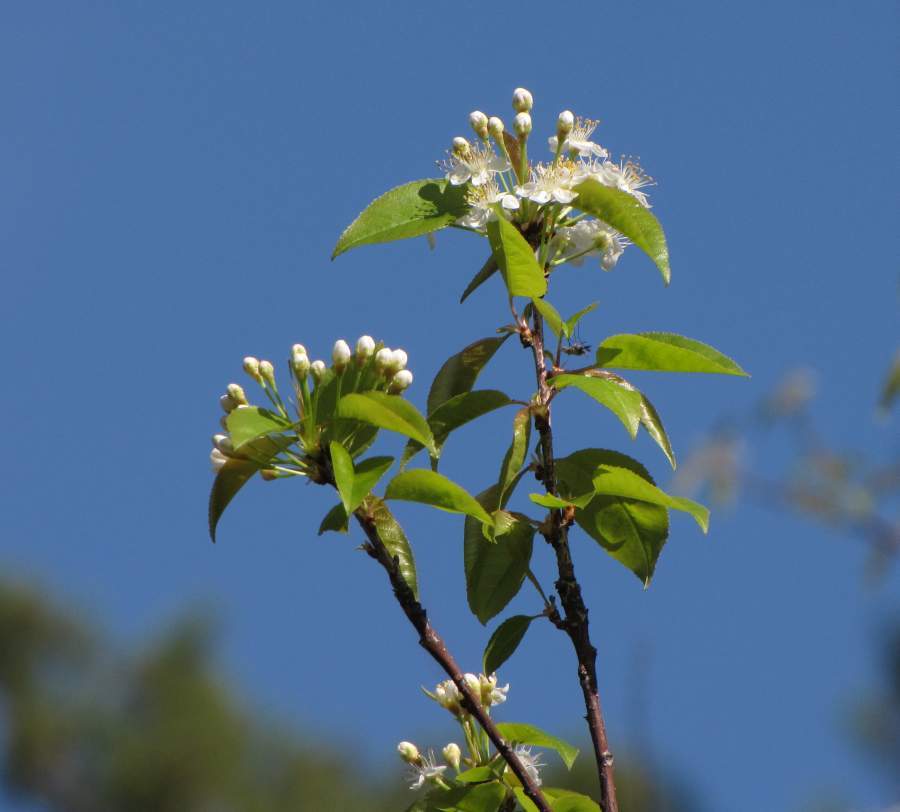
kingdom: Plantae
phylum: Tracheophyta
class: Magnoliopsida
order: Rosales
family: Rosaceae
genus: Prunus
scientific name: Prunus pensylvanica
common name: Pin cherry
